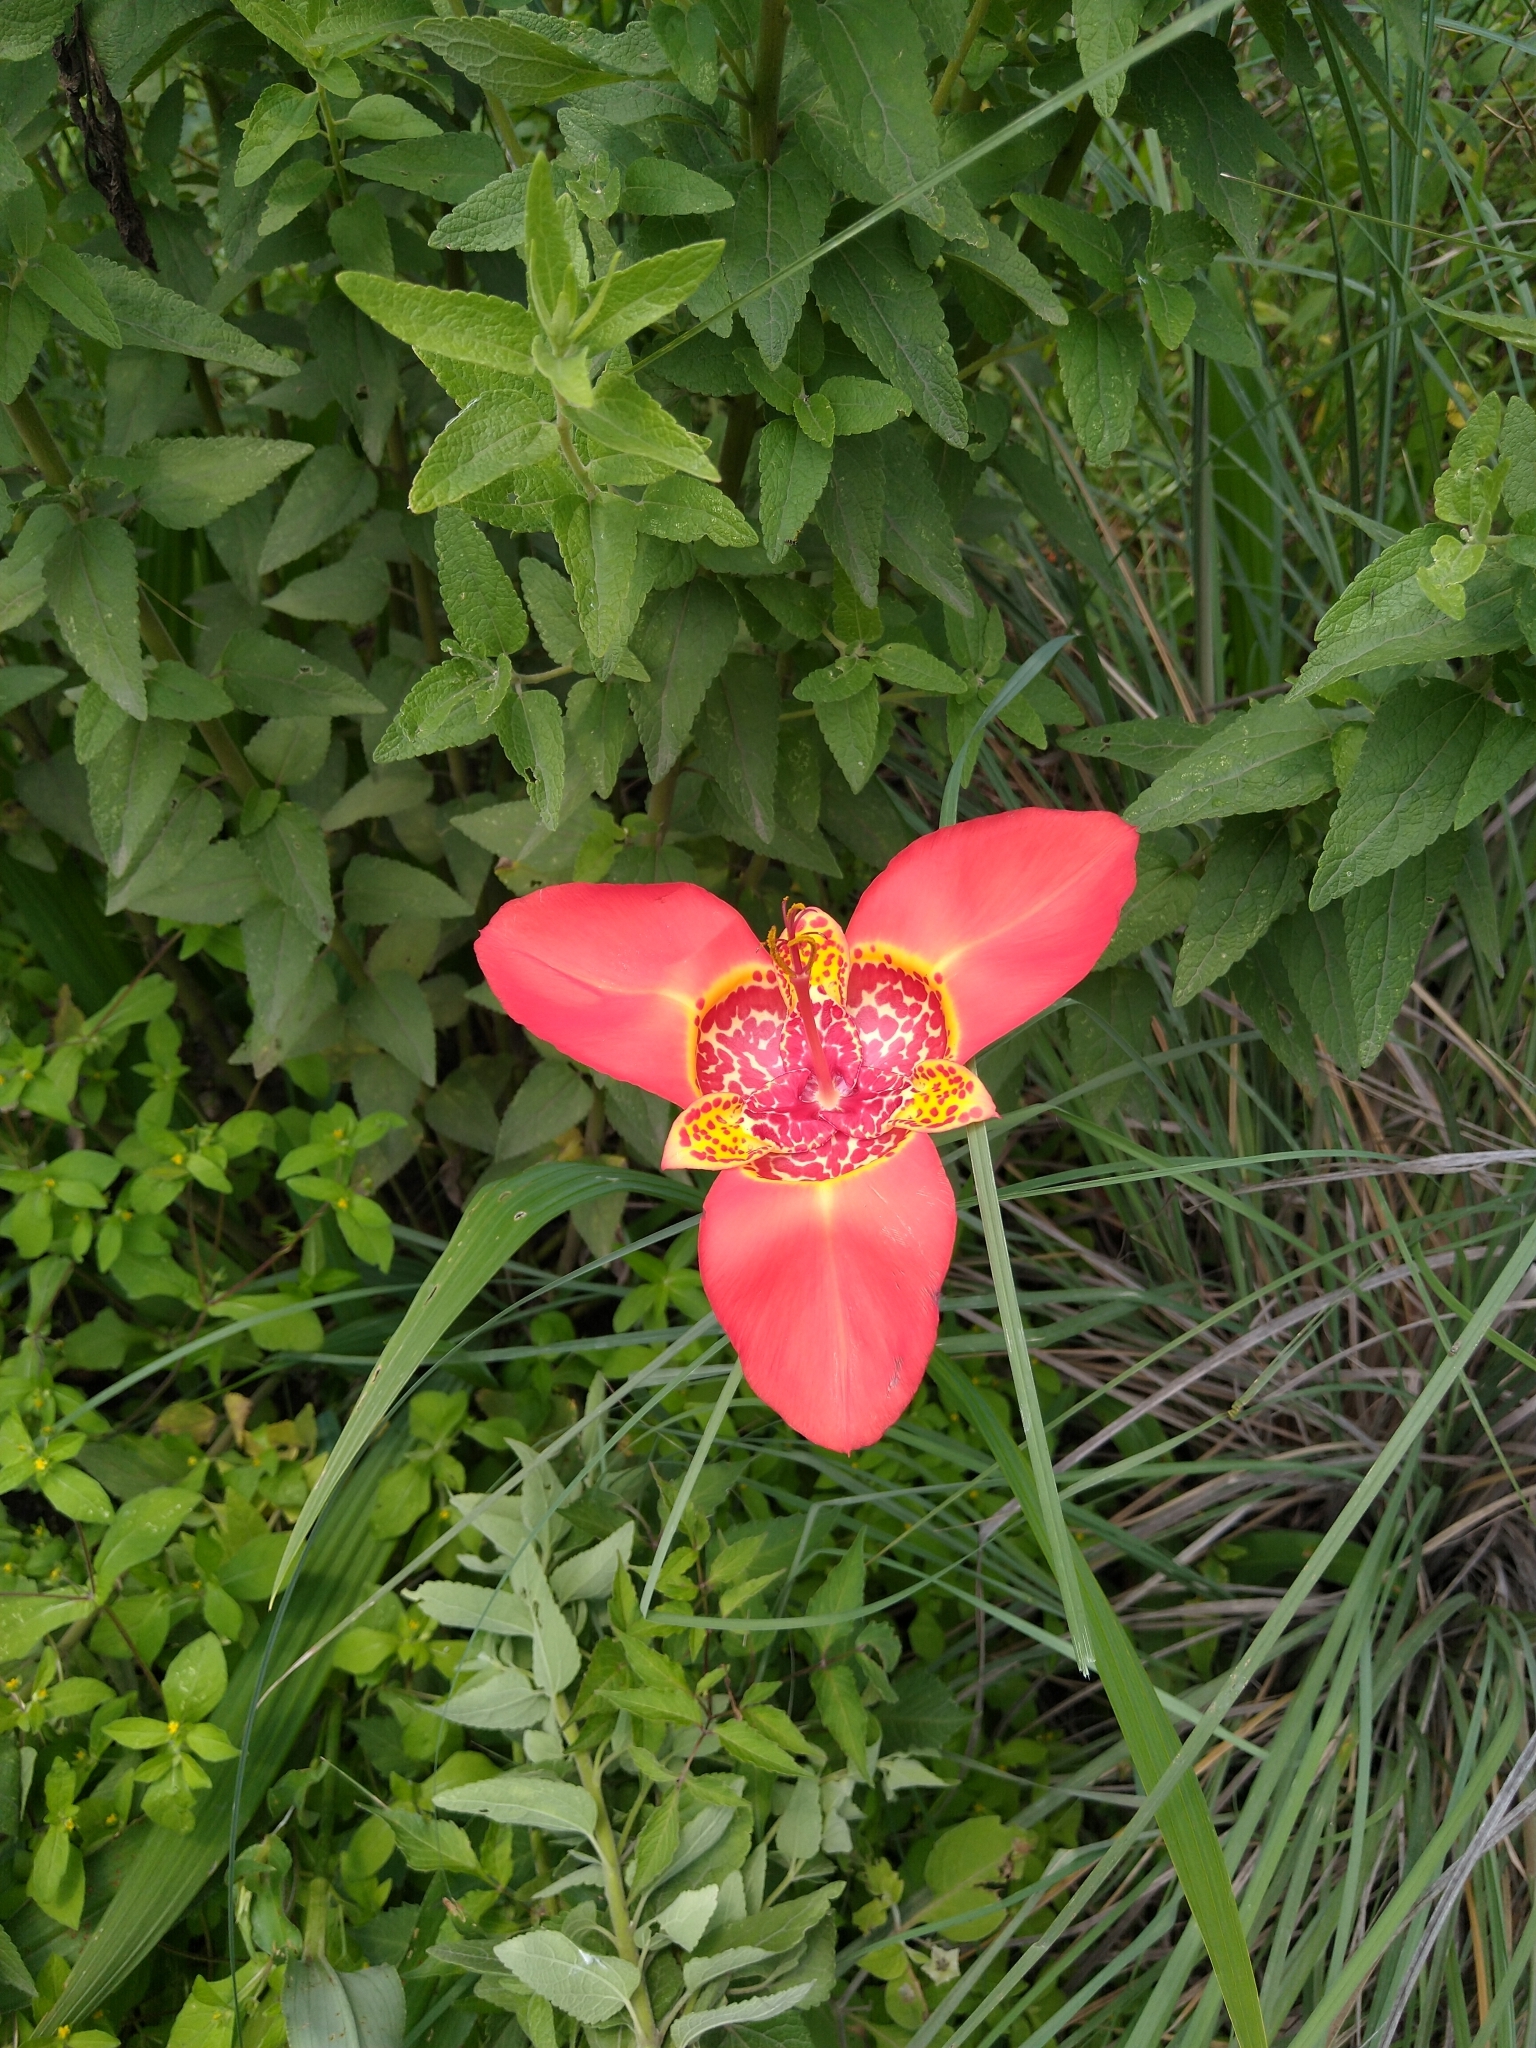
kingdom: Plantae
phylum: Tracheophyta
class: Liliopsida
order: Asparagales
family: Iridaceae
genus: Tigridia
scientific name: Tigridia pavonia
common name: Peacock-flower
